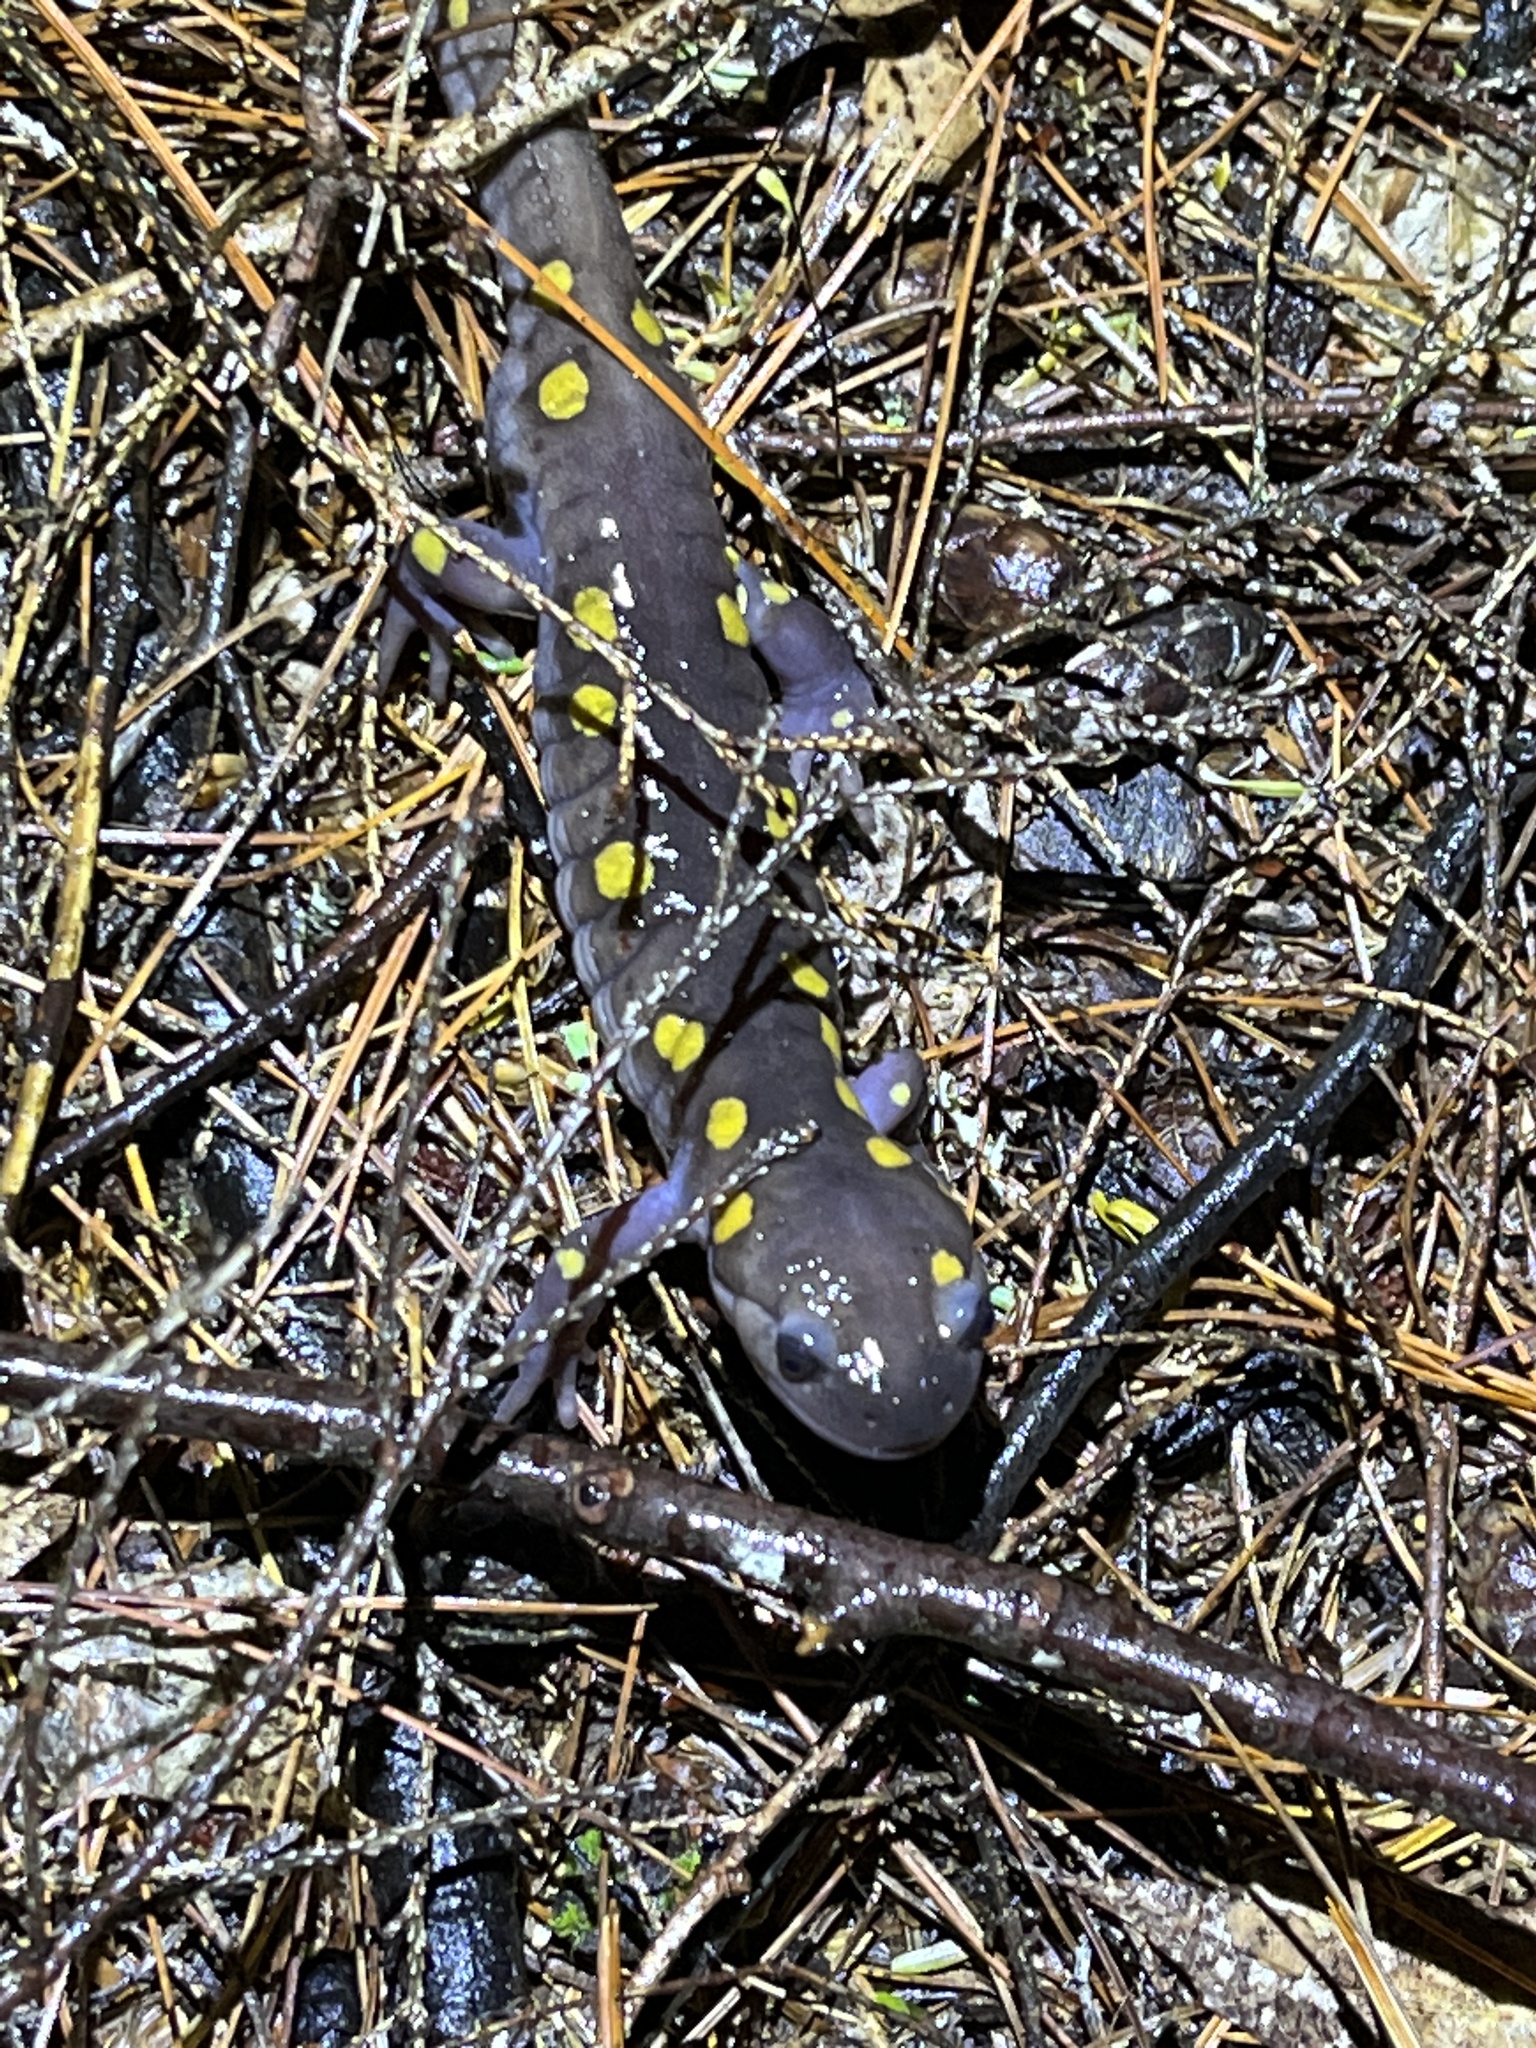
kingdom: Animalia
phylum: Chordata
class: Amphibia
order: Caudata
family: Ambystomatidae
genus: Ambystoma
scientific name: Ambystoma maculatum
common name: Spotted salamander
